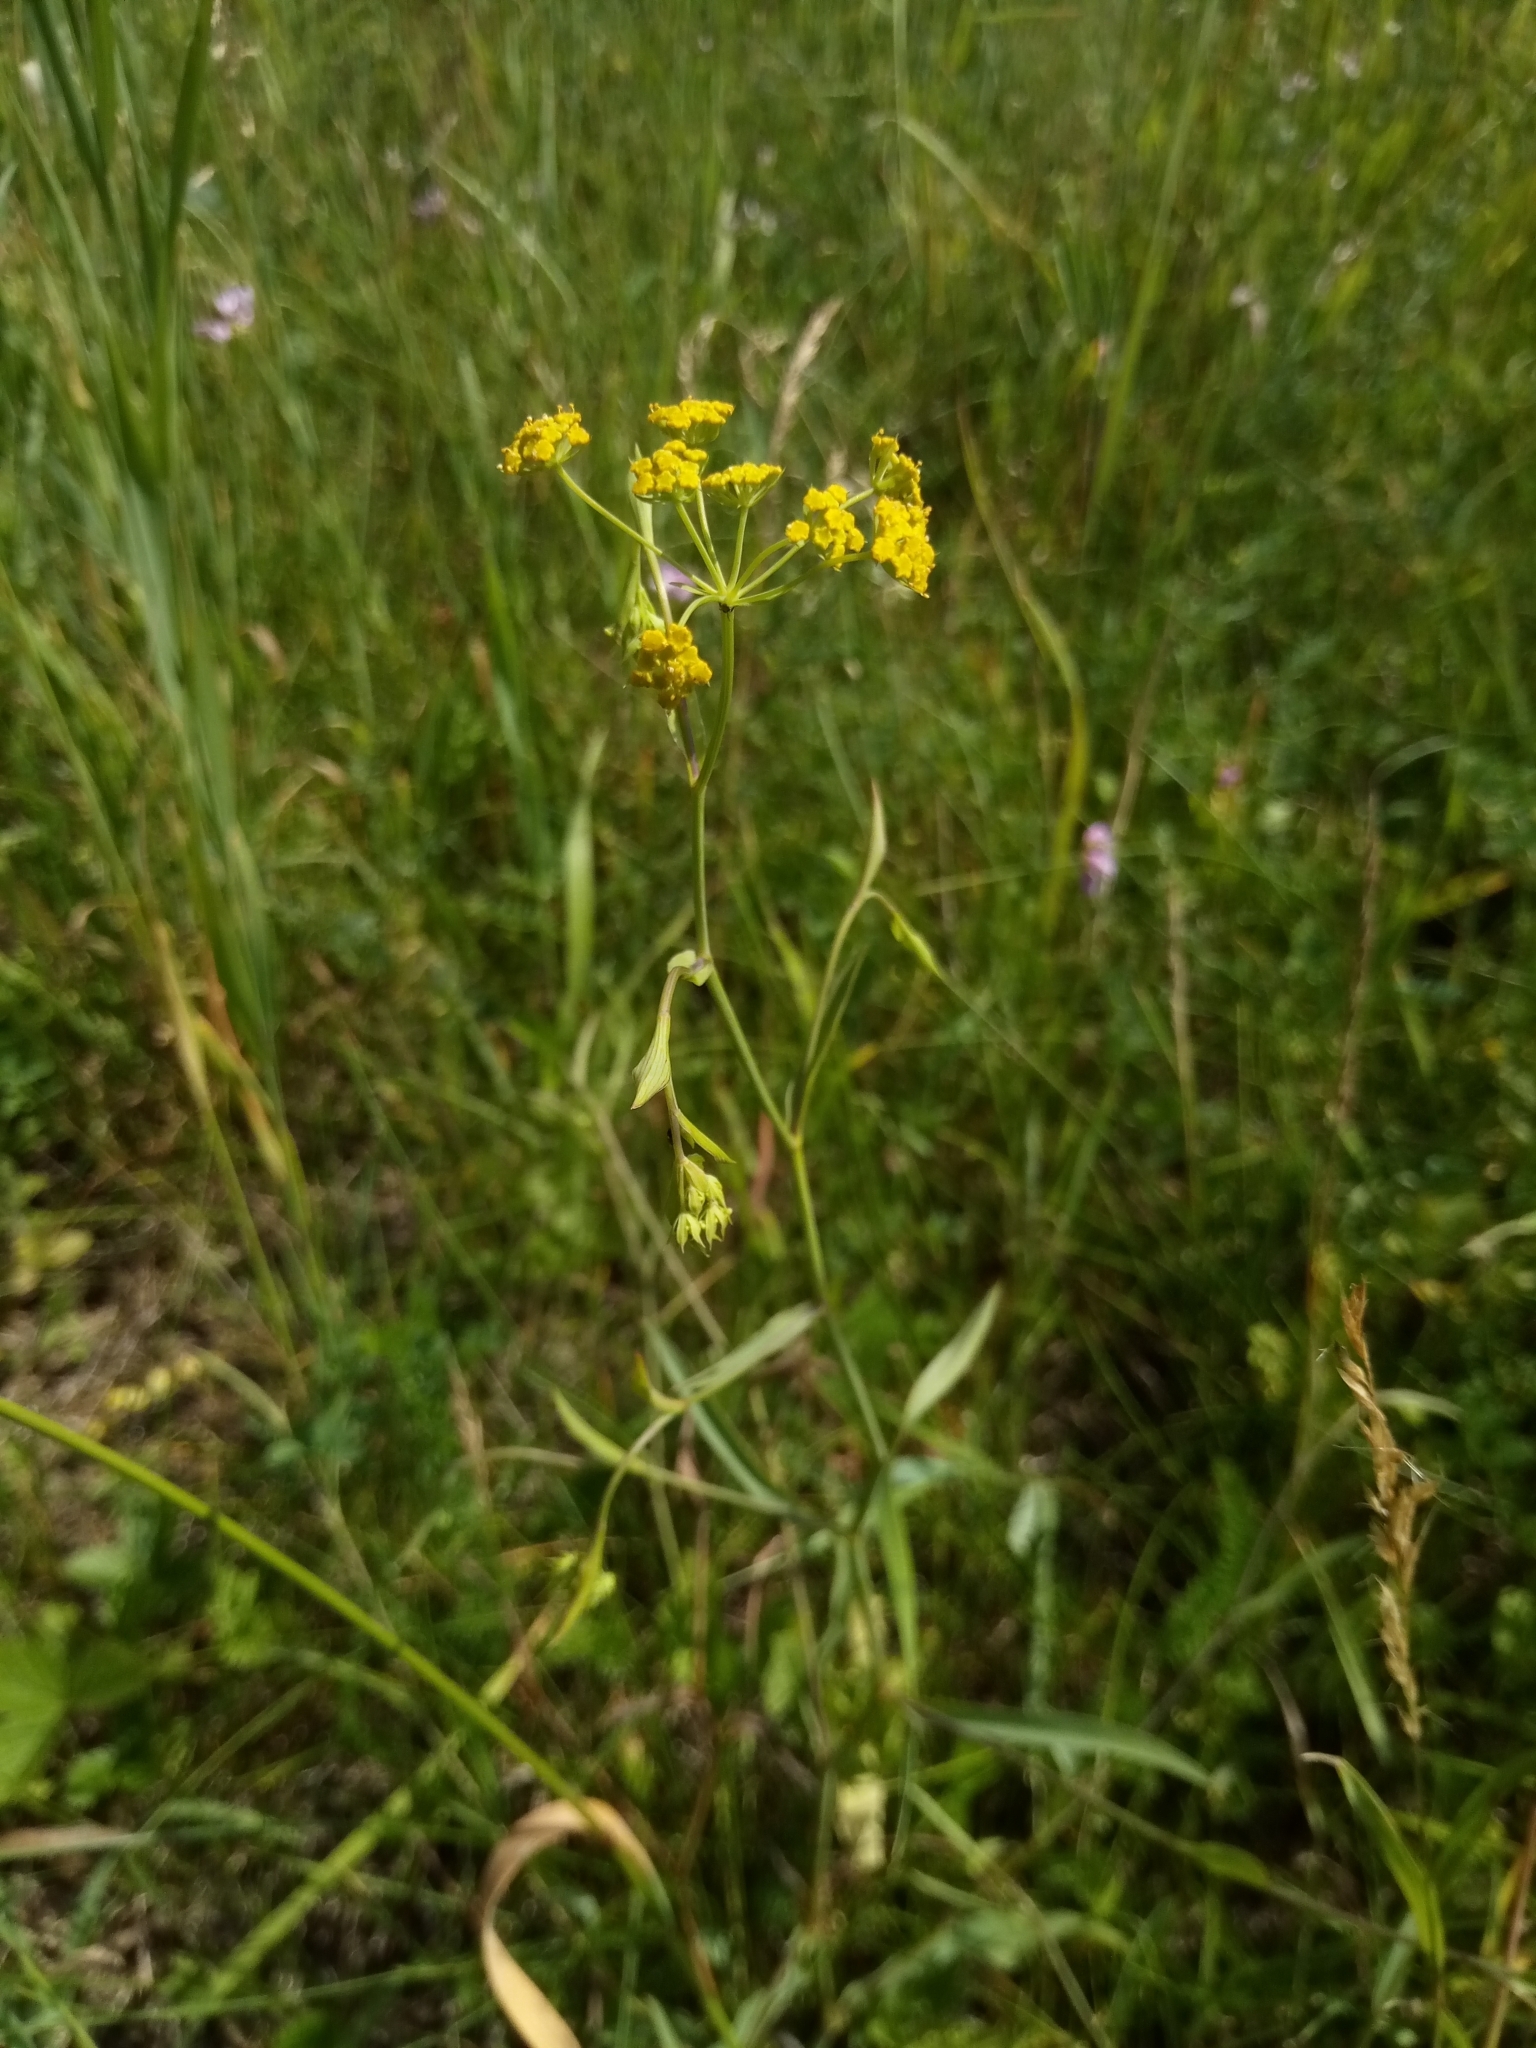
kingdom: Plantae
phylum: Tracheophyta
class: Magnoliopsida
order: Apiales
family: Apiaceae
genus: Bupleurum
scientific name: Bupleurum falcatum
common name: Sickle-leaved hare's-ear
